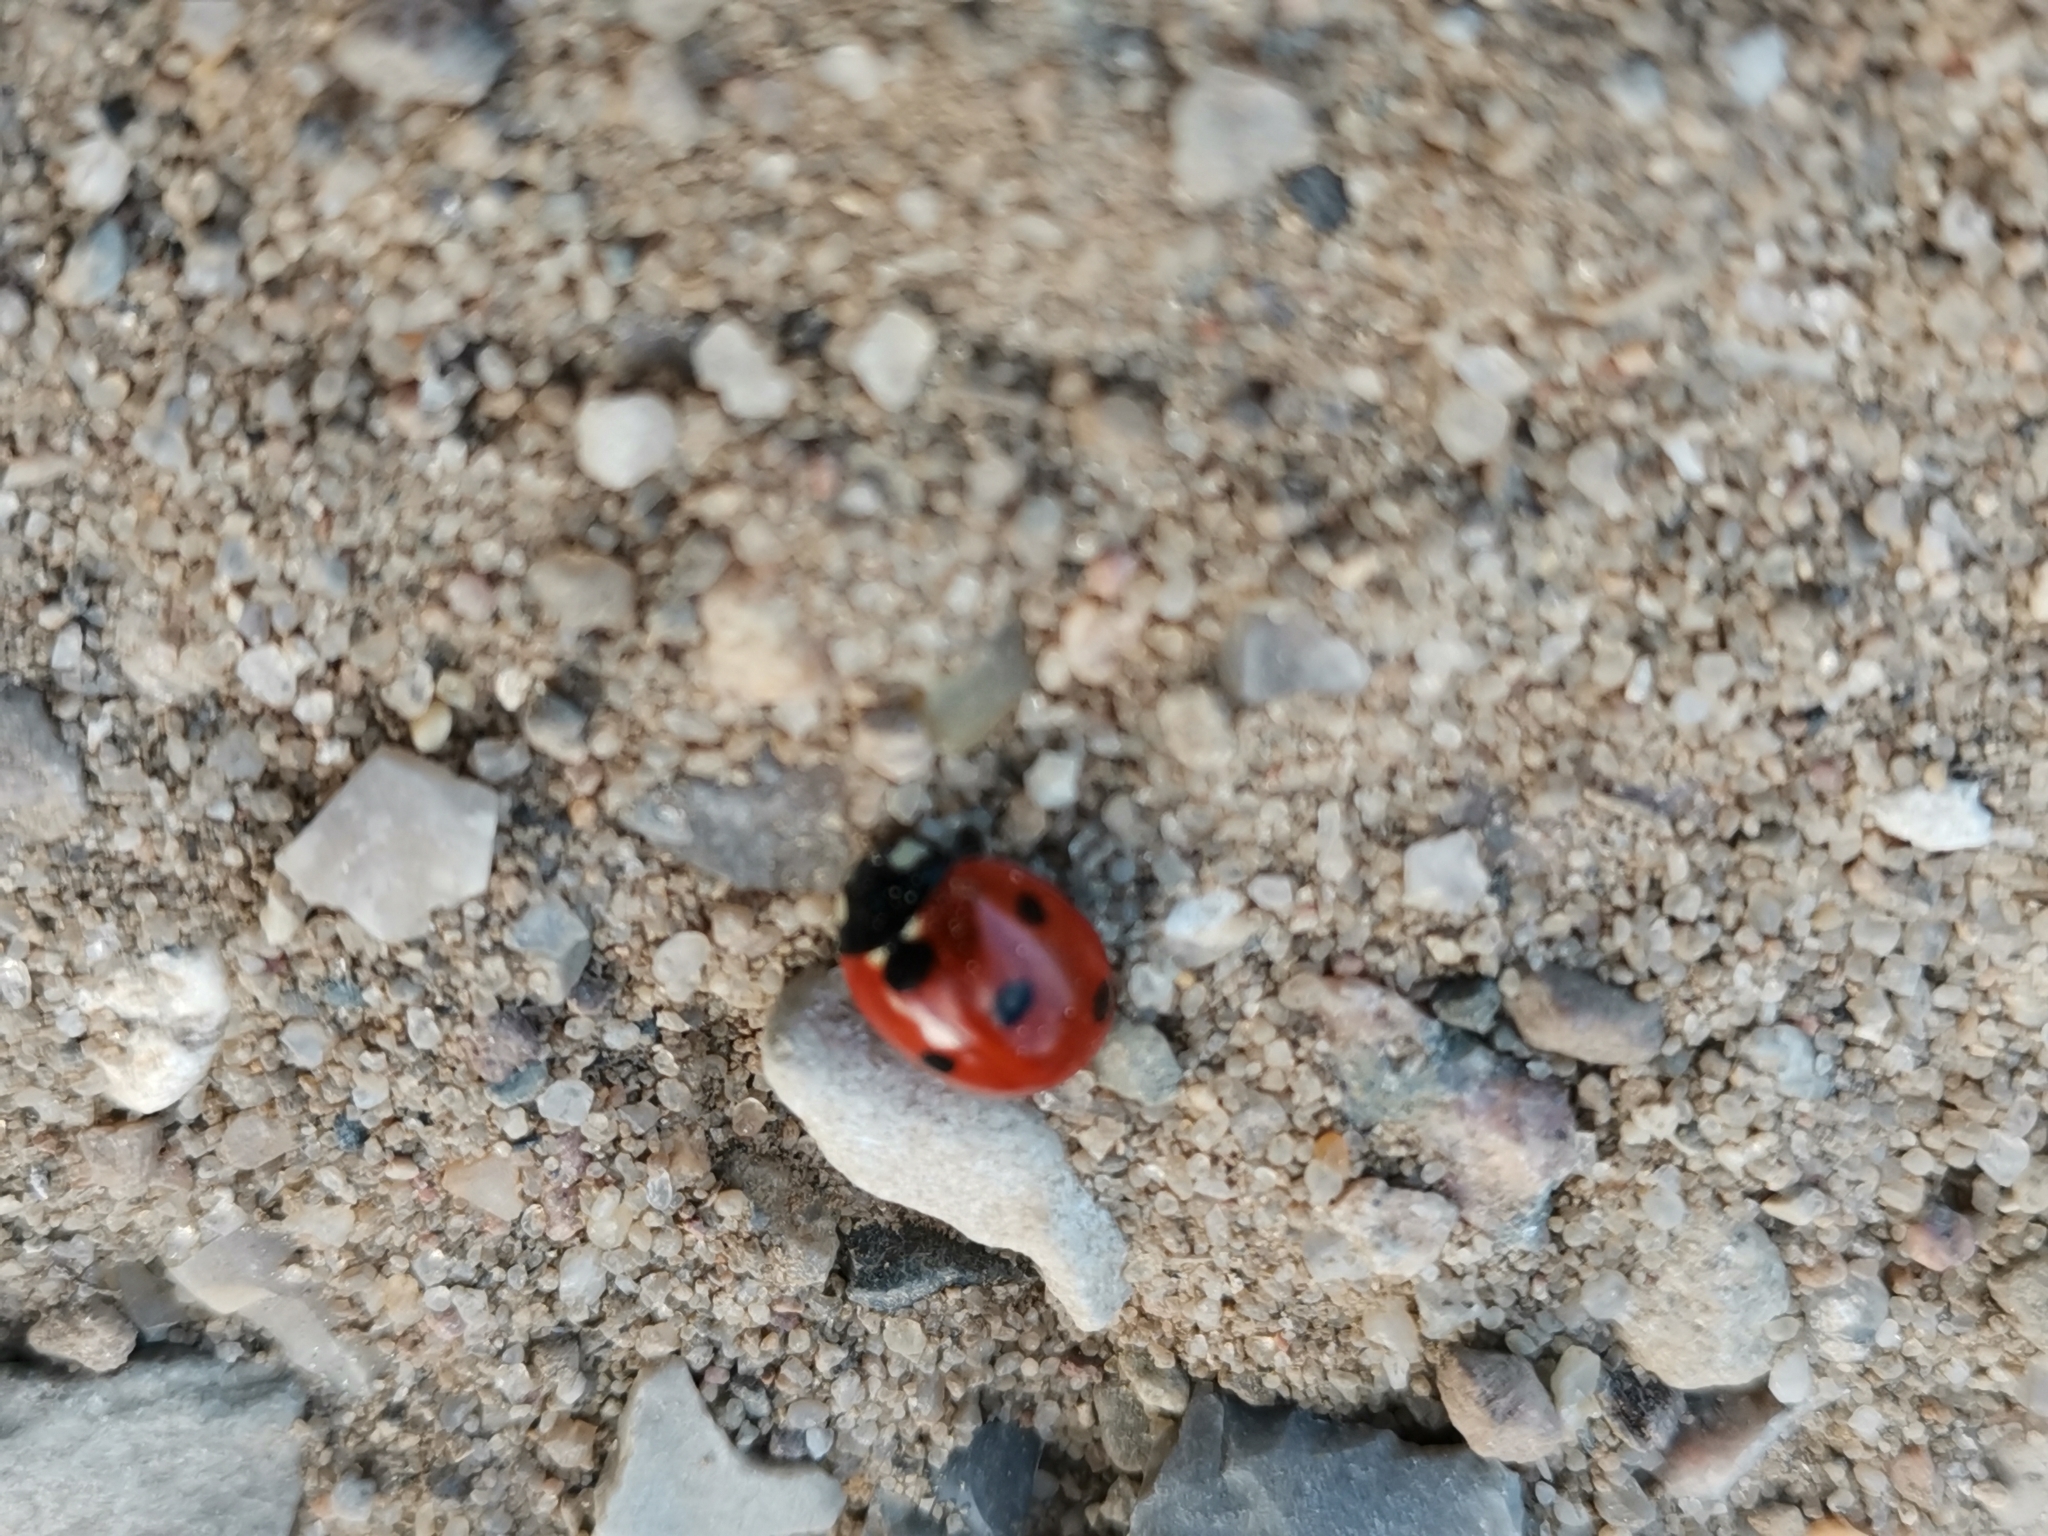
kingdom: Animalia
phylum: Arthropoda
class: Insecta
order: Coleoptera
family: Coccinellidae
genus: Coccinella
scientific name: Coccinella septempunctata
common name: Sevenspotted lady beetle
